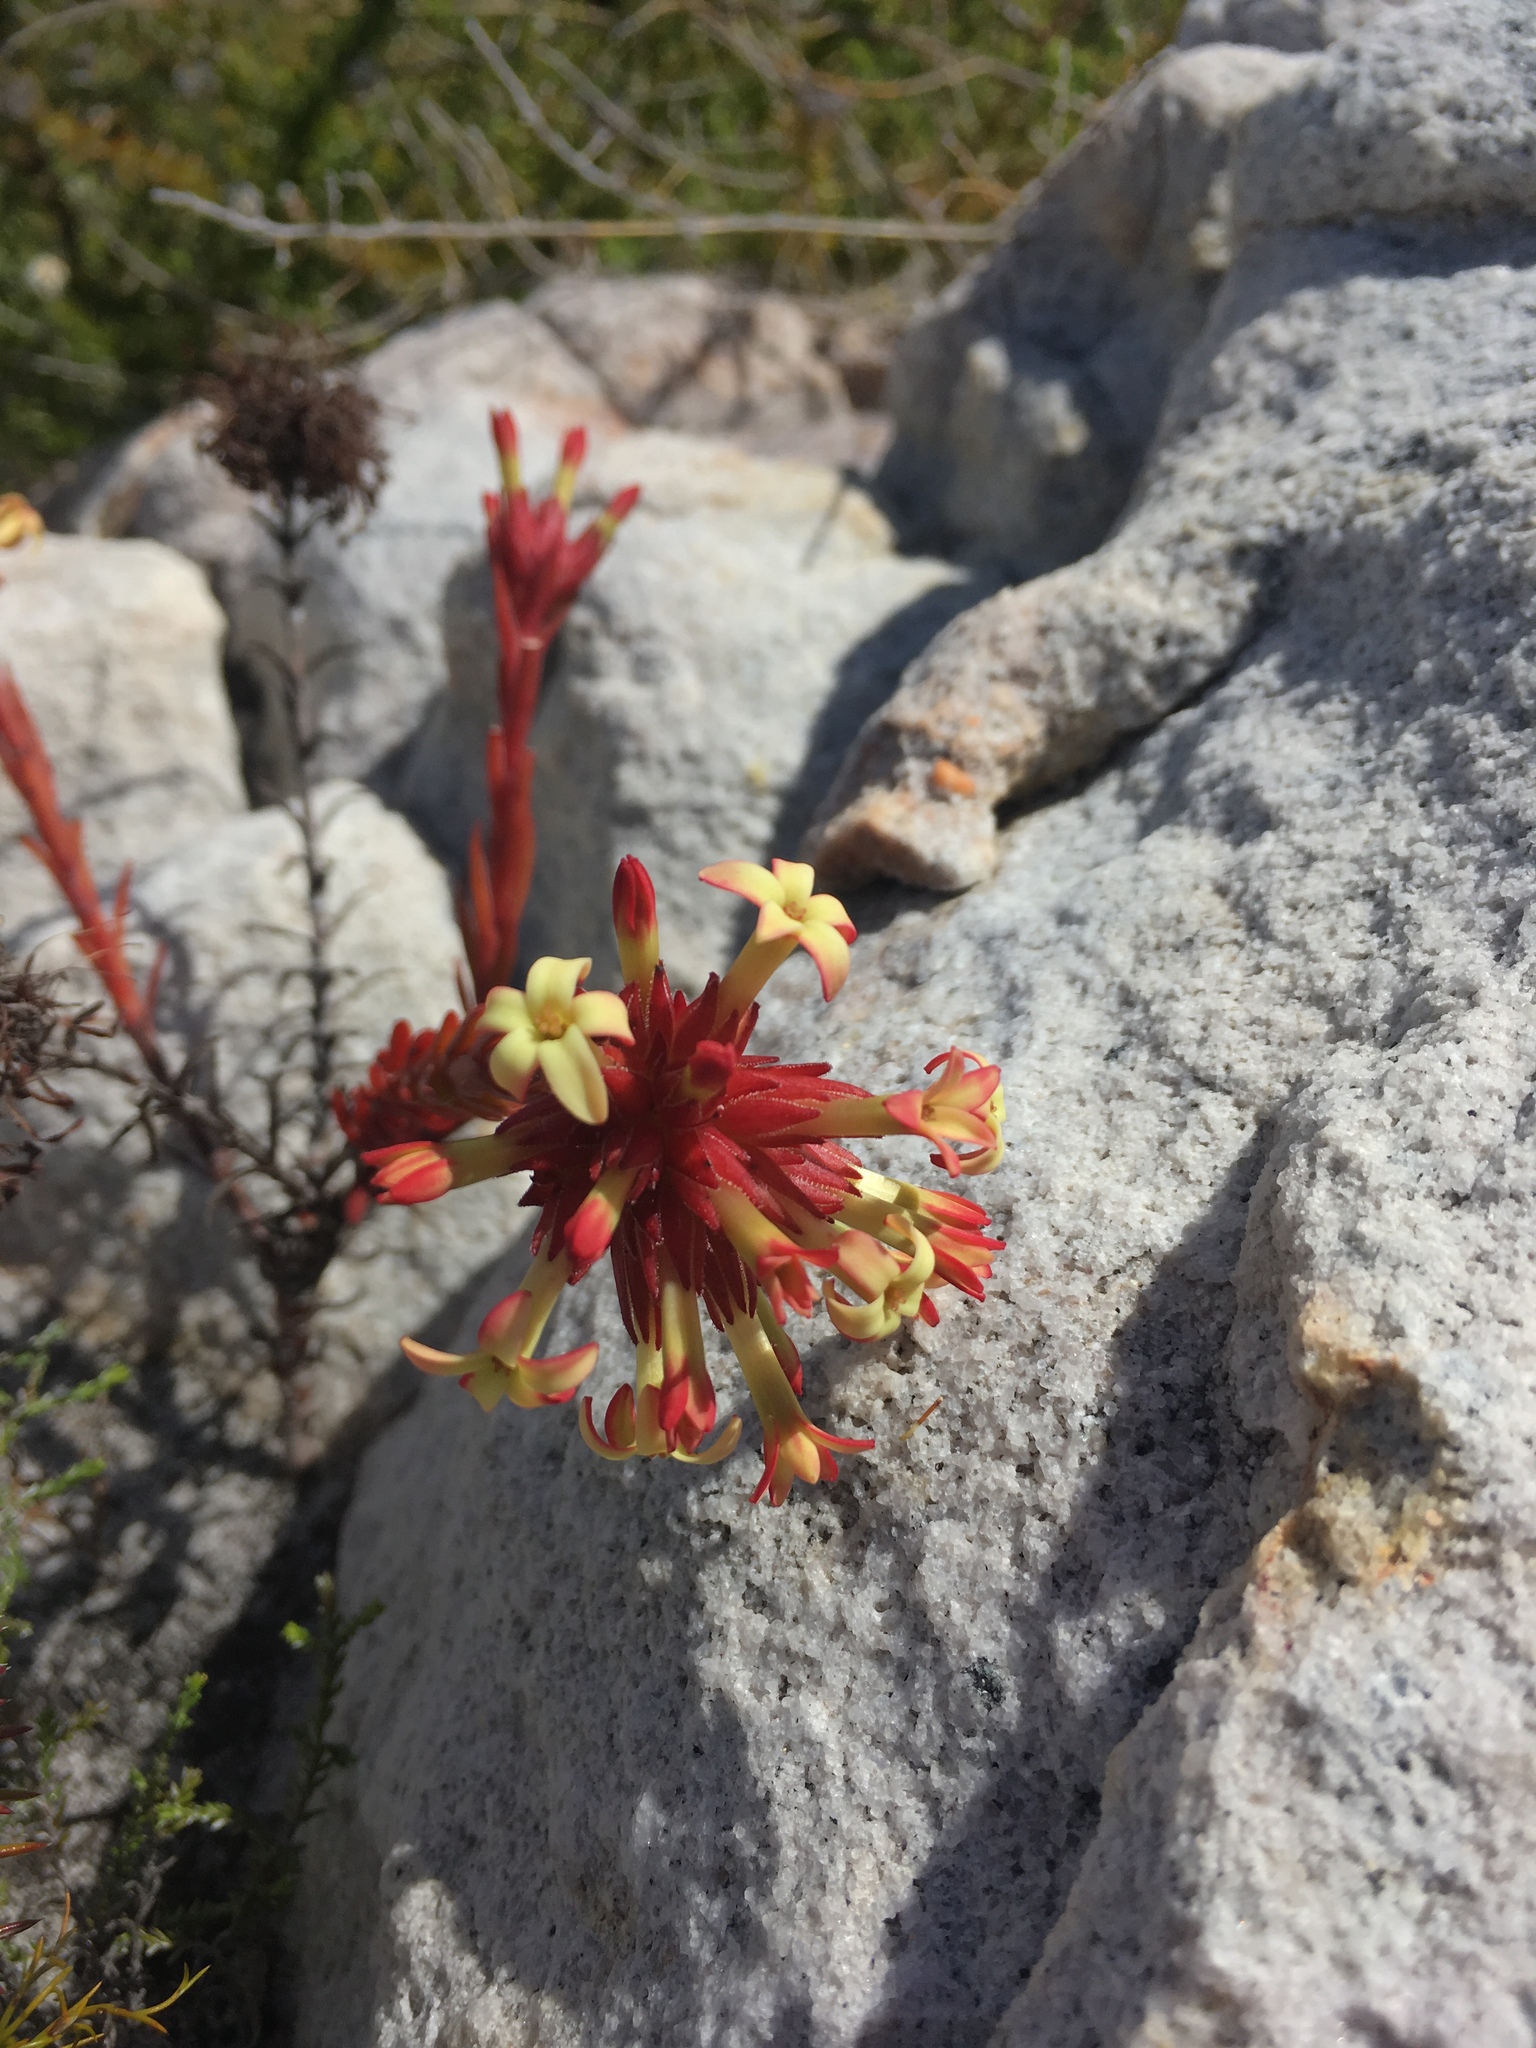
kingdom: Plantae
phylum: Tracheophyta
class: Magnoliopsida
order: Saxifragales
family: Crassulaceae
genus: Crassula
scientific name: Crassula fascicularis
